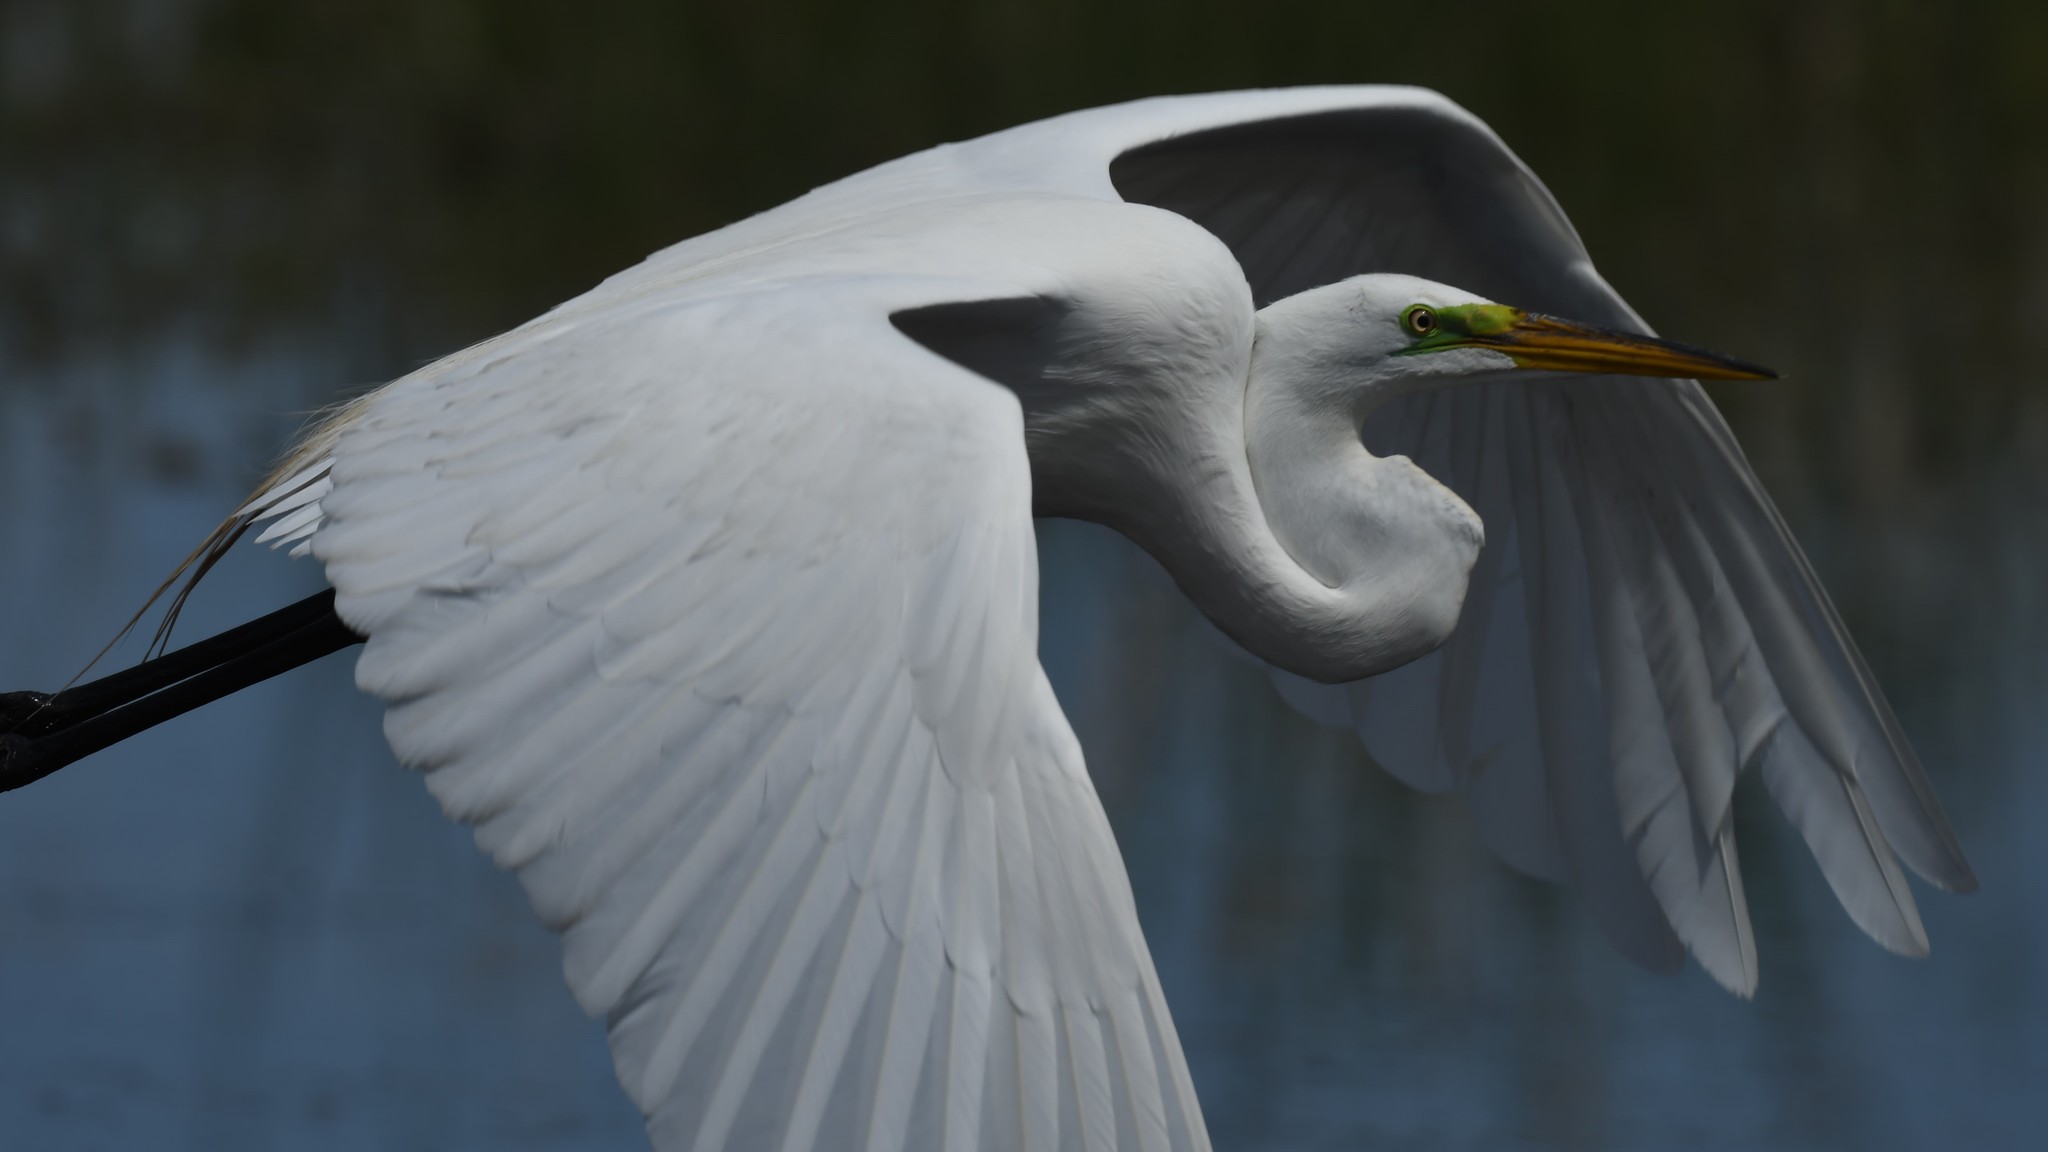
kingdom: Animalia
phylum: Chordata
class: Aves
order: Pelecaniformes
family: Ardeidae
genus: Ardea
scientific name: Ardea alba
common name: Great egret
